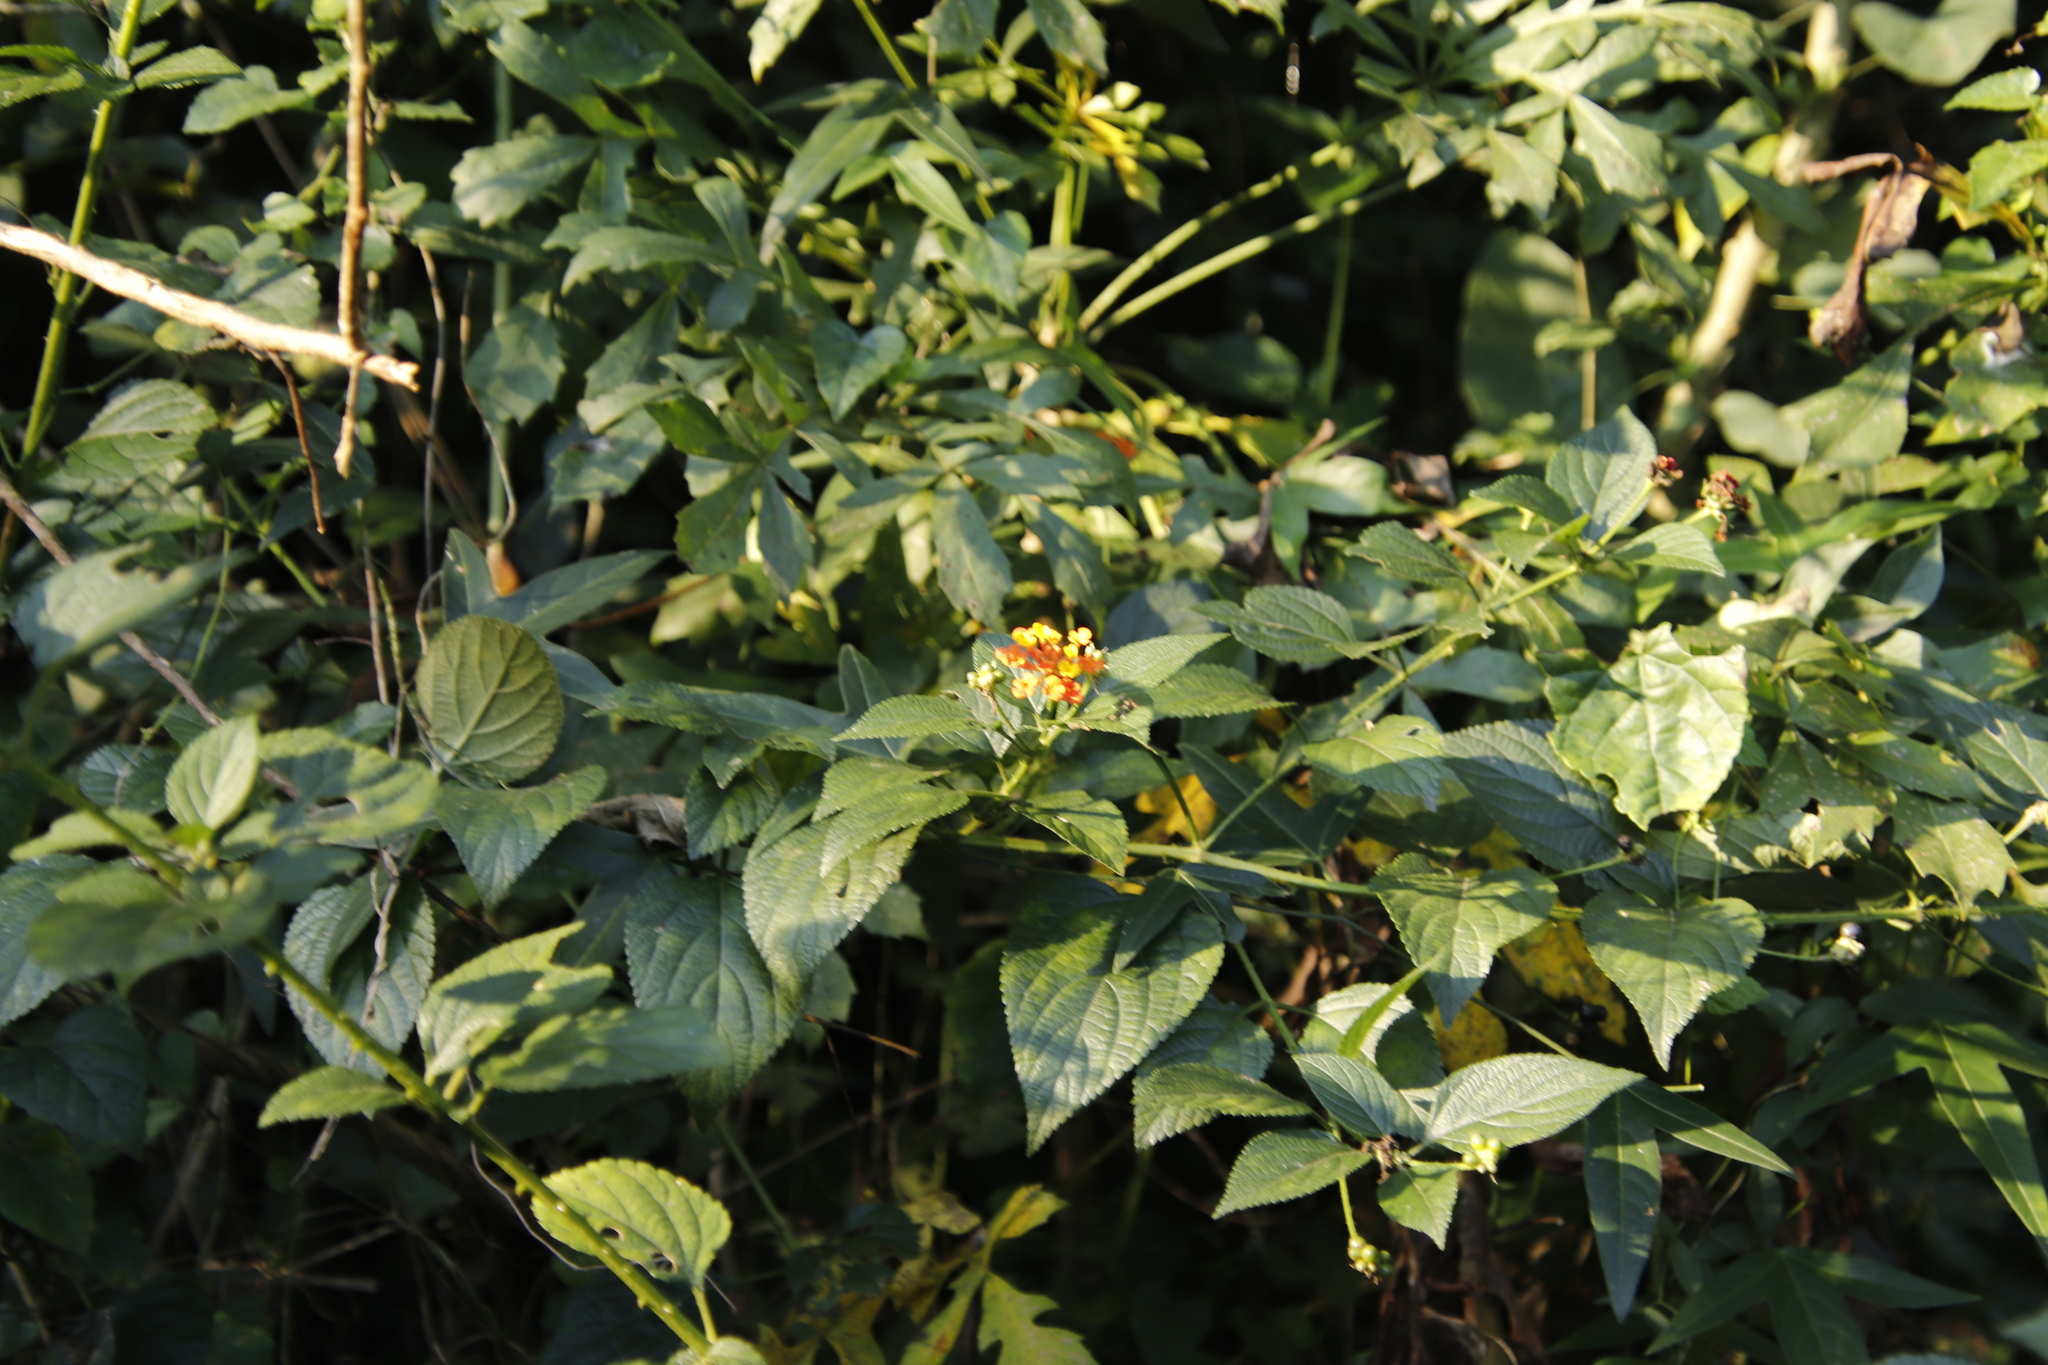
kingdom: Plantae
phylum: Tracheophyta
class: Magnoliopsida
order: Lamiales
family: Verbenaceae
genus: Lantana
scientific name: Lantana camara
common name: Lantana
